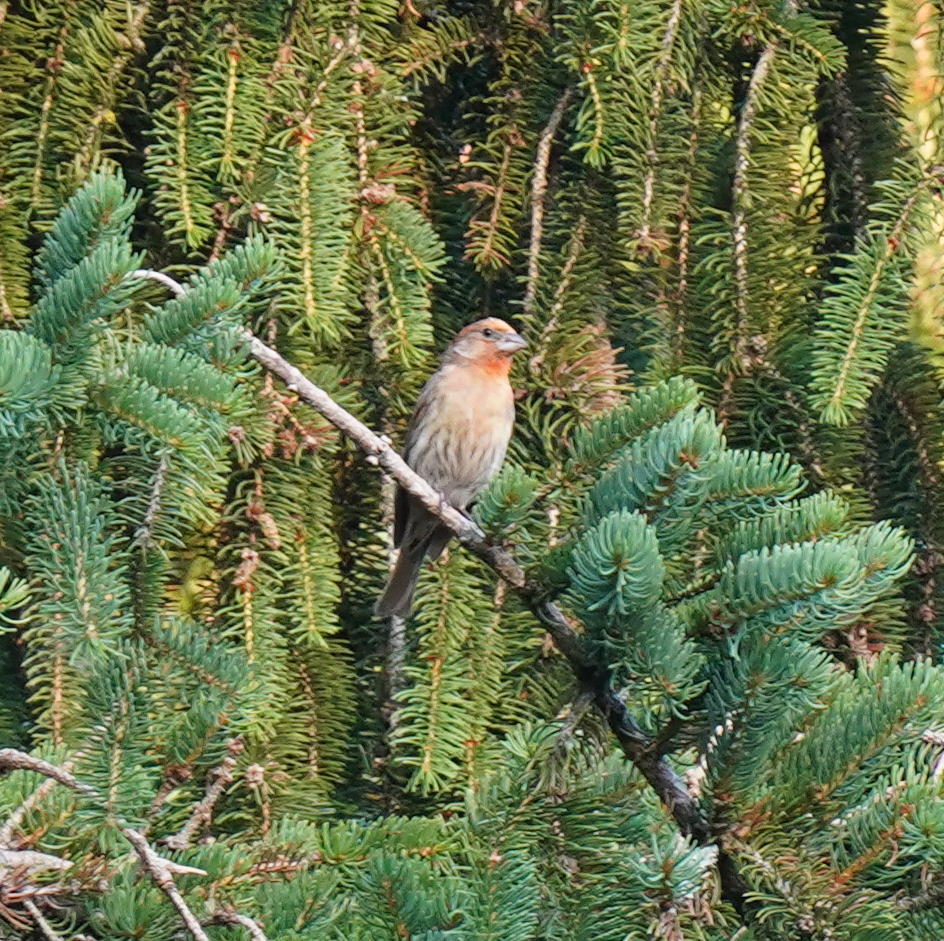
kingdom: Animalia
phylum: Chordata
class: Aves
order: Passeriformes
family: Fringillidae
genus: Haemorhous
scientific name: Haemorhous mexicanus
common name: House finch
